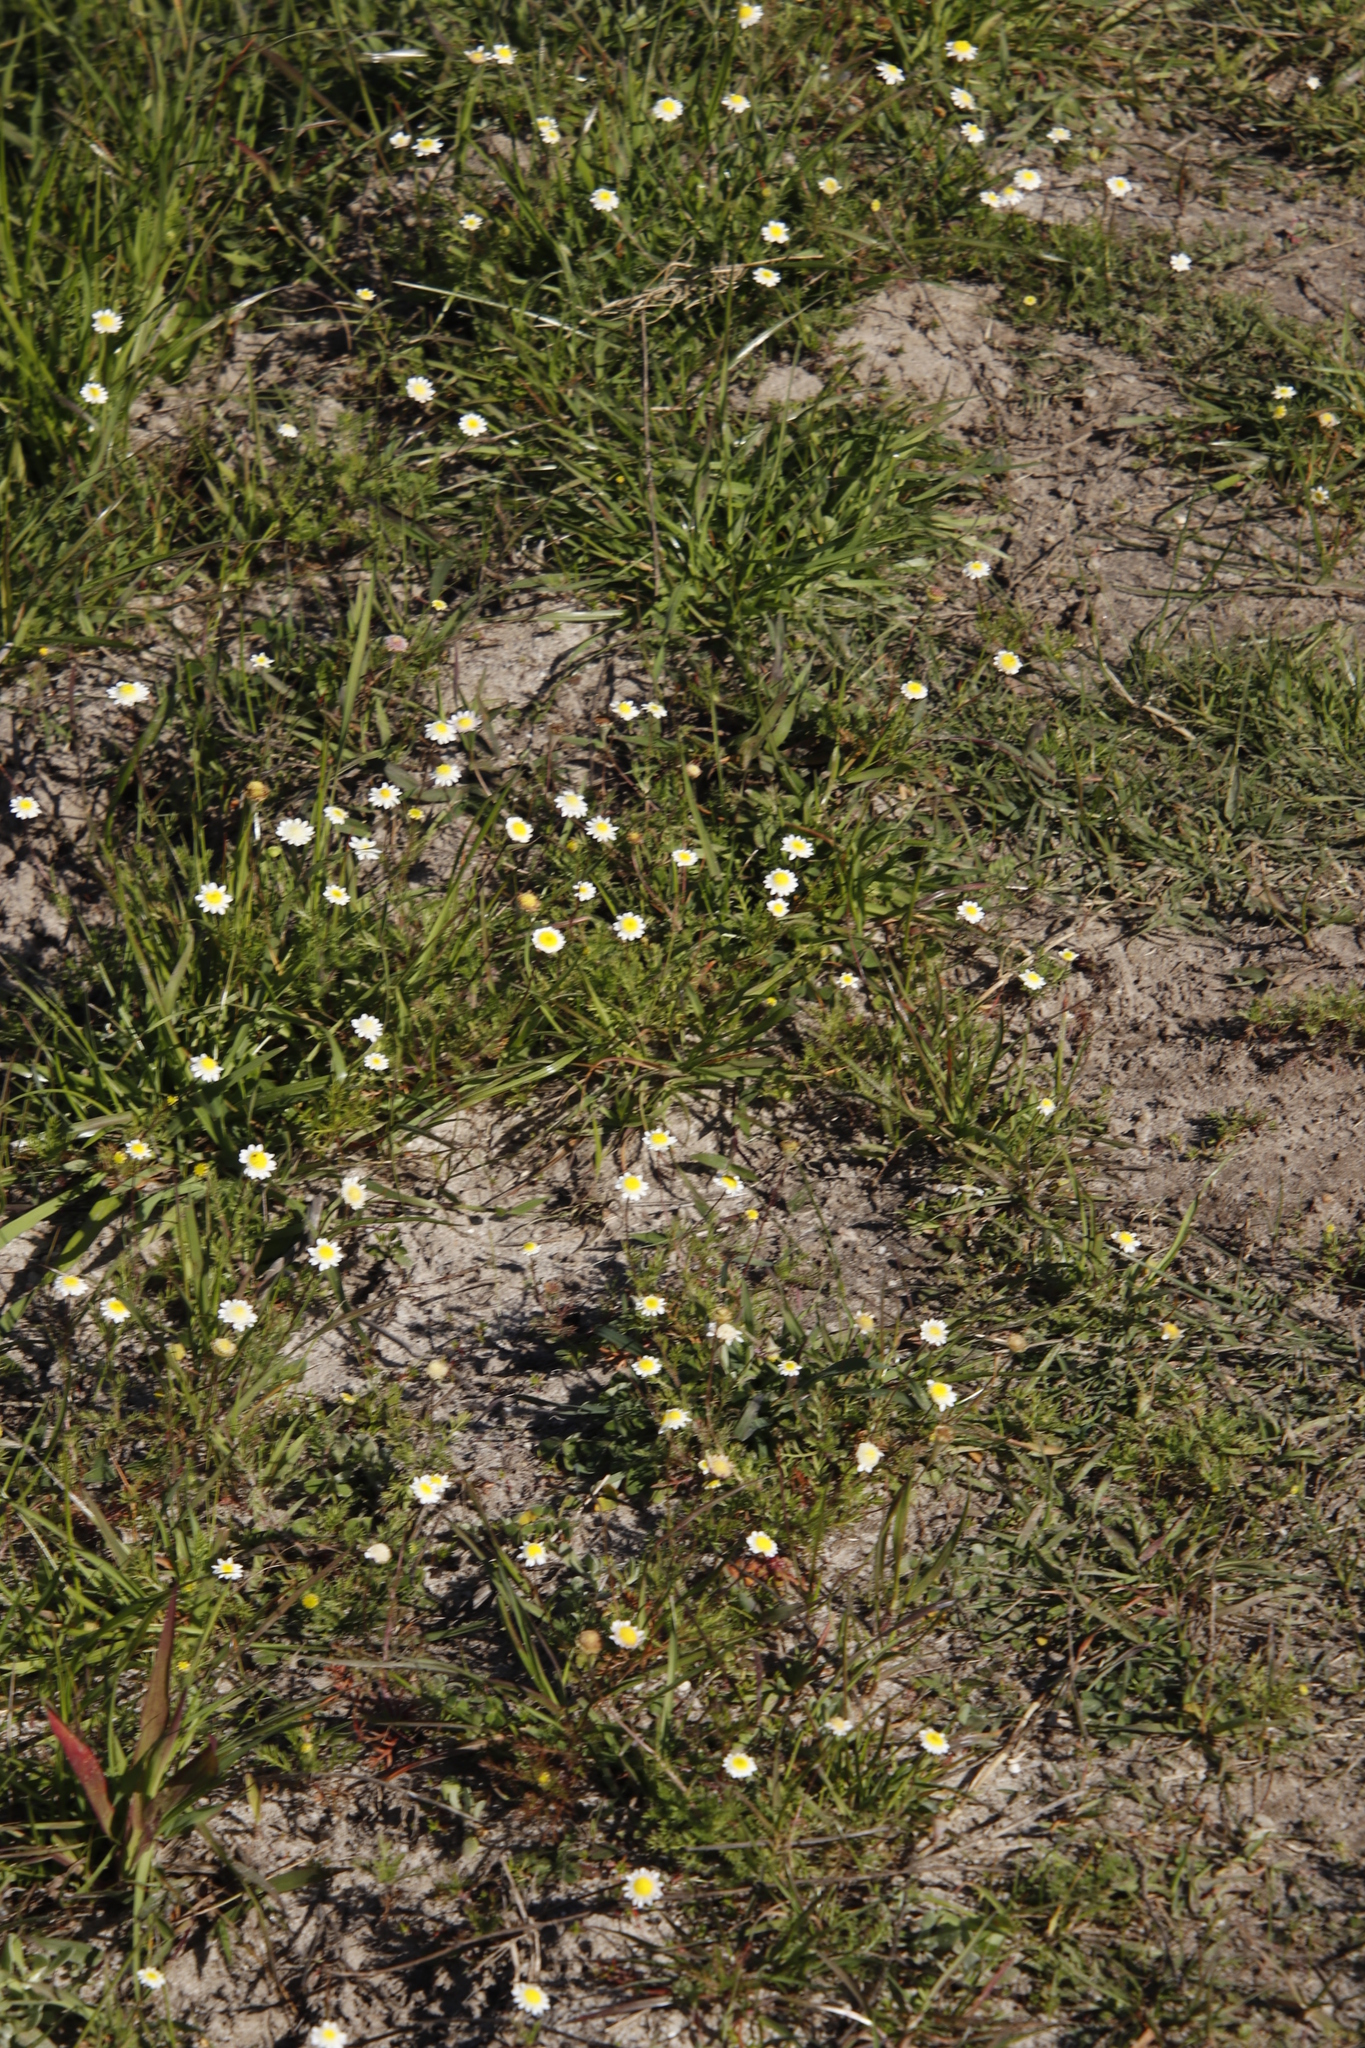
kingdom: Plantae
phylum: Tracheophyta
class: Magnoliopsida
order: Asterales
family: Asteraceae
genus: Cotula
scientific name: Cotula turbinata
